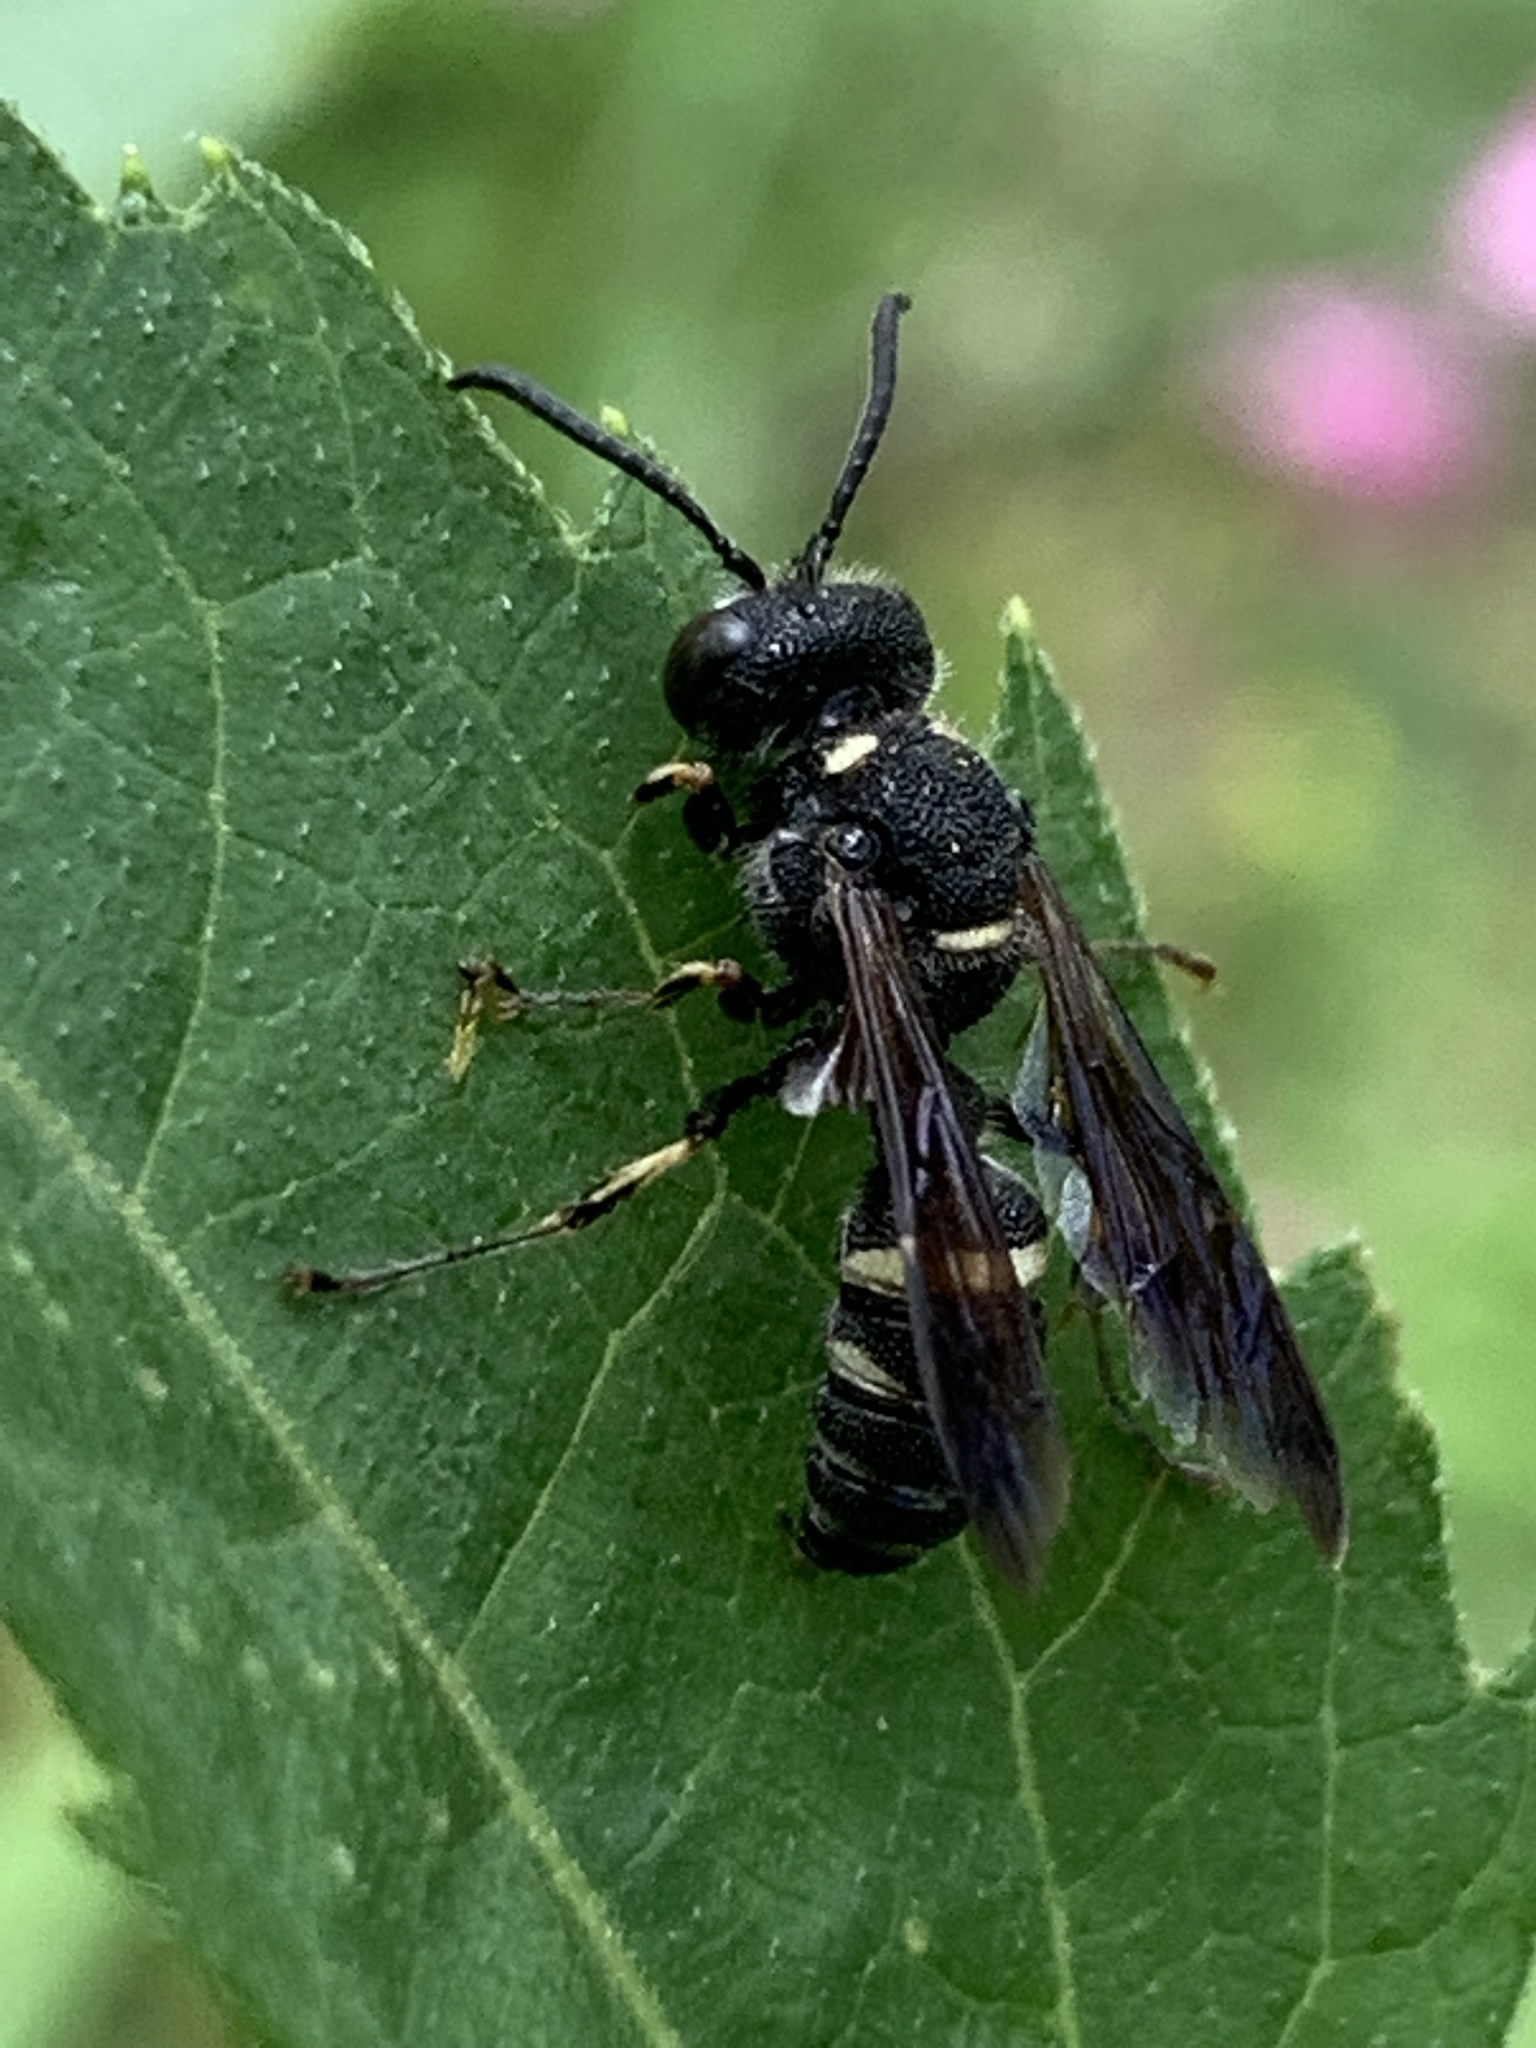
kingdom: Animalia
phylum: Arthropoda
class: Insecta
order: Hymenoptera
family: Crabronidae
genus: Cerceris
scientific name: Cerceris fumipennis
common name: Smokey-winged beetle bandit wasp
